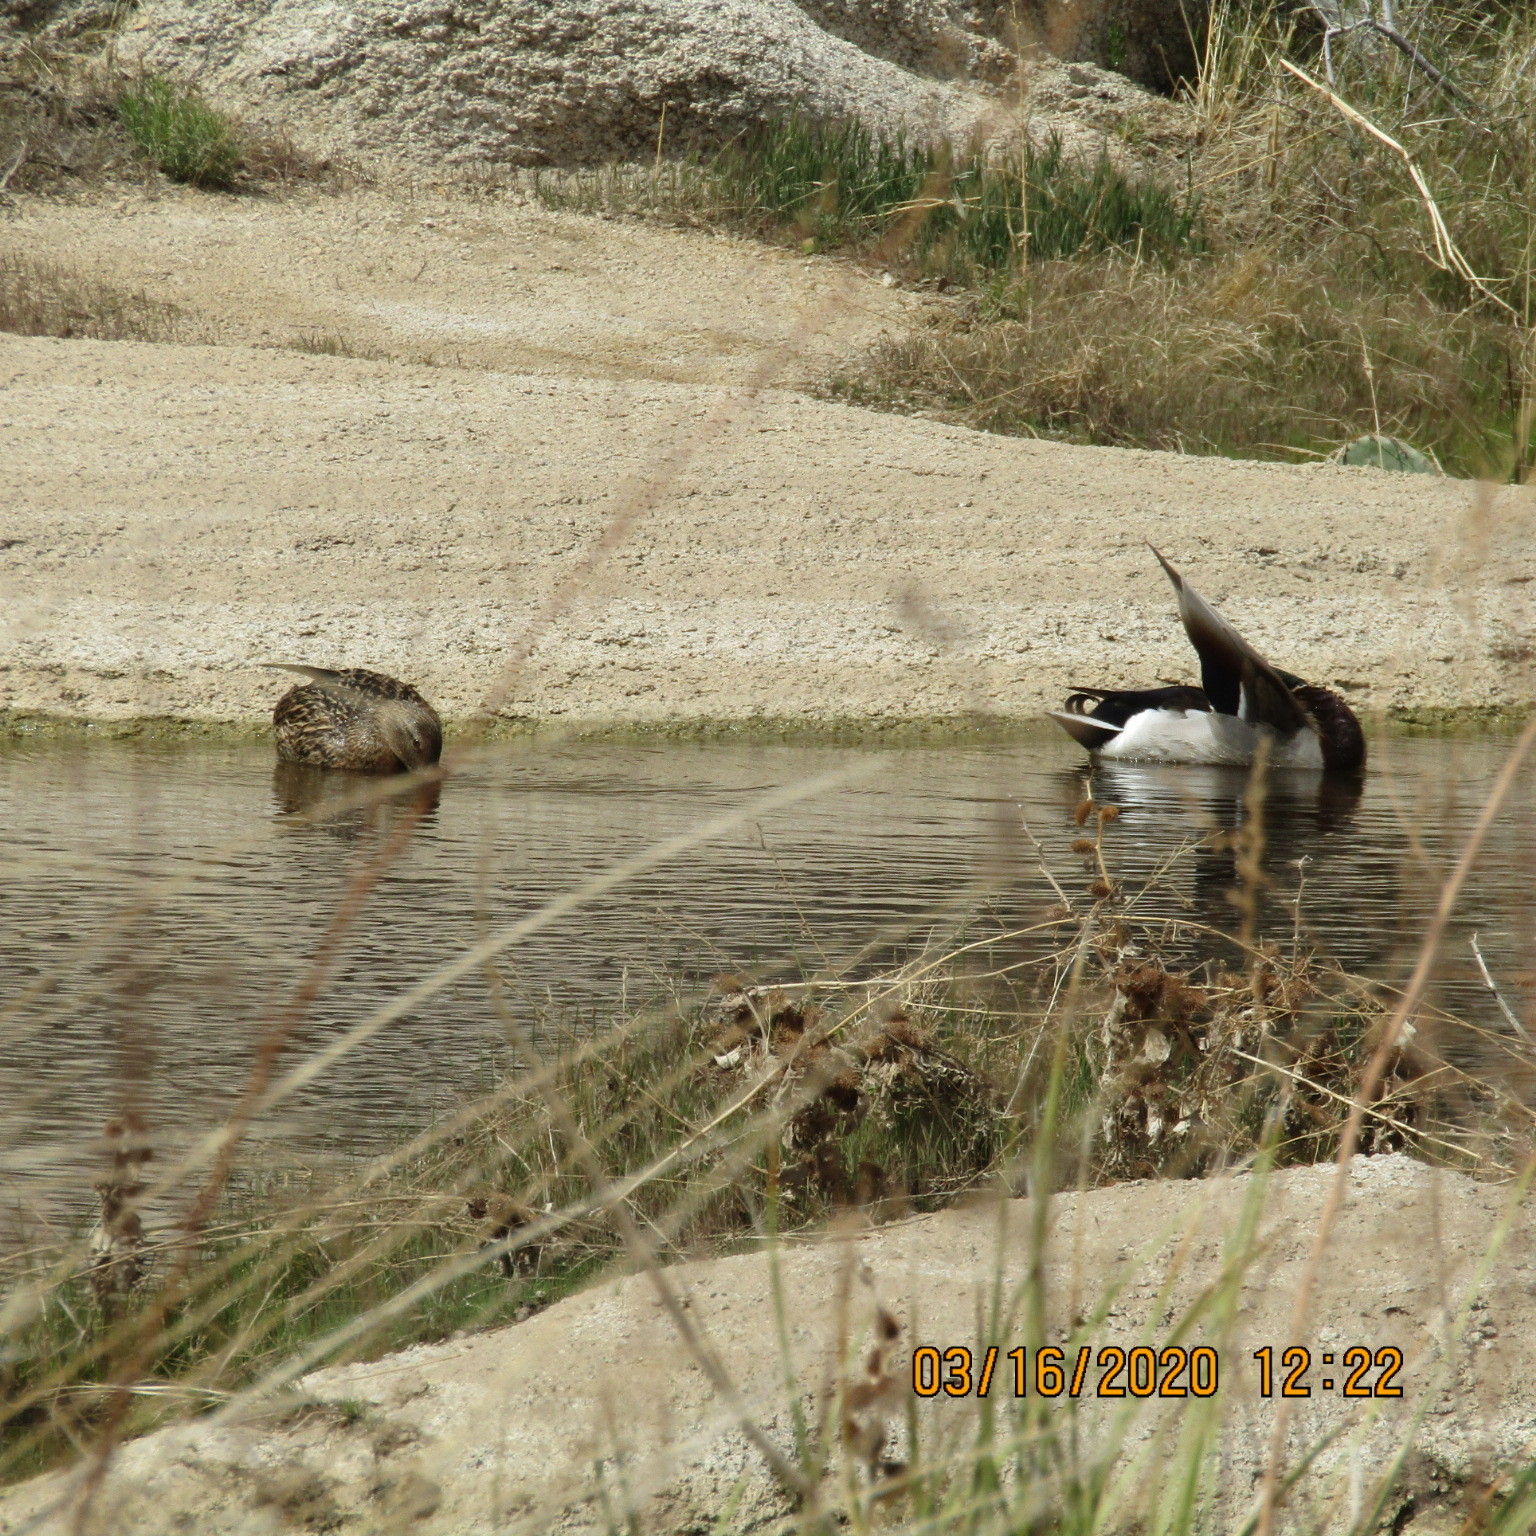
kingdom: Animalia
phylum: Chordata
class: Aves
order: Anseriformes
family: Anatidae
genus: Anas
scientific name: Anas platyrhynchos
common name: Mallard
